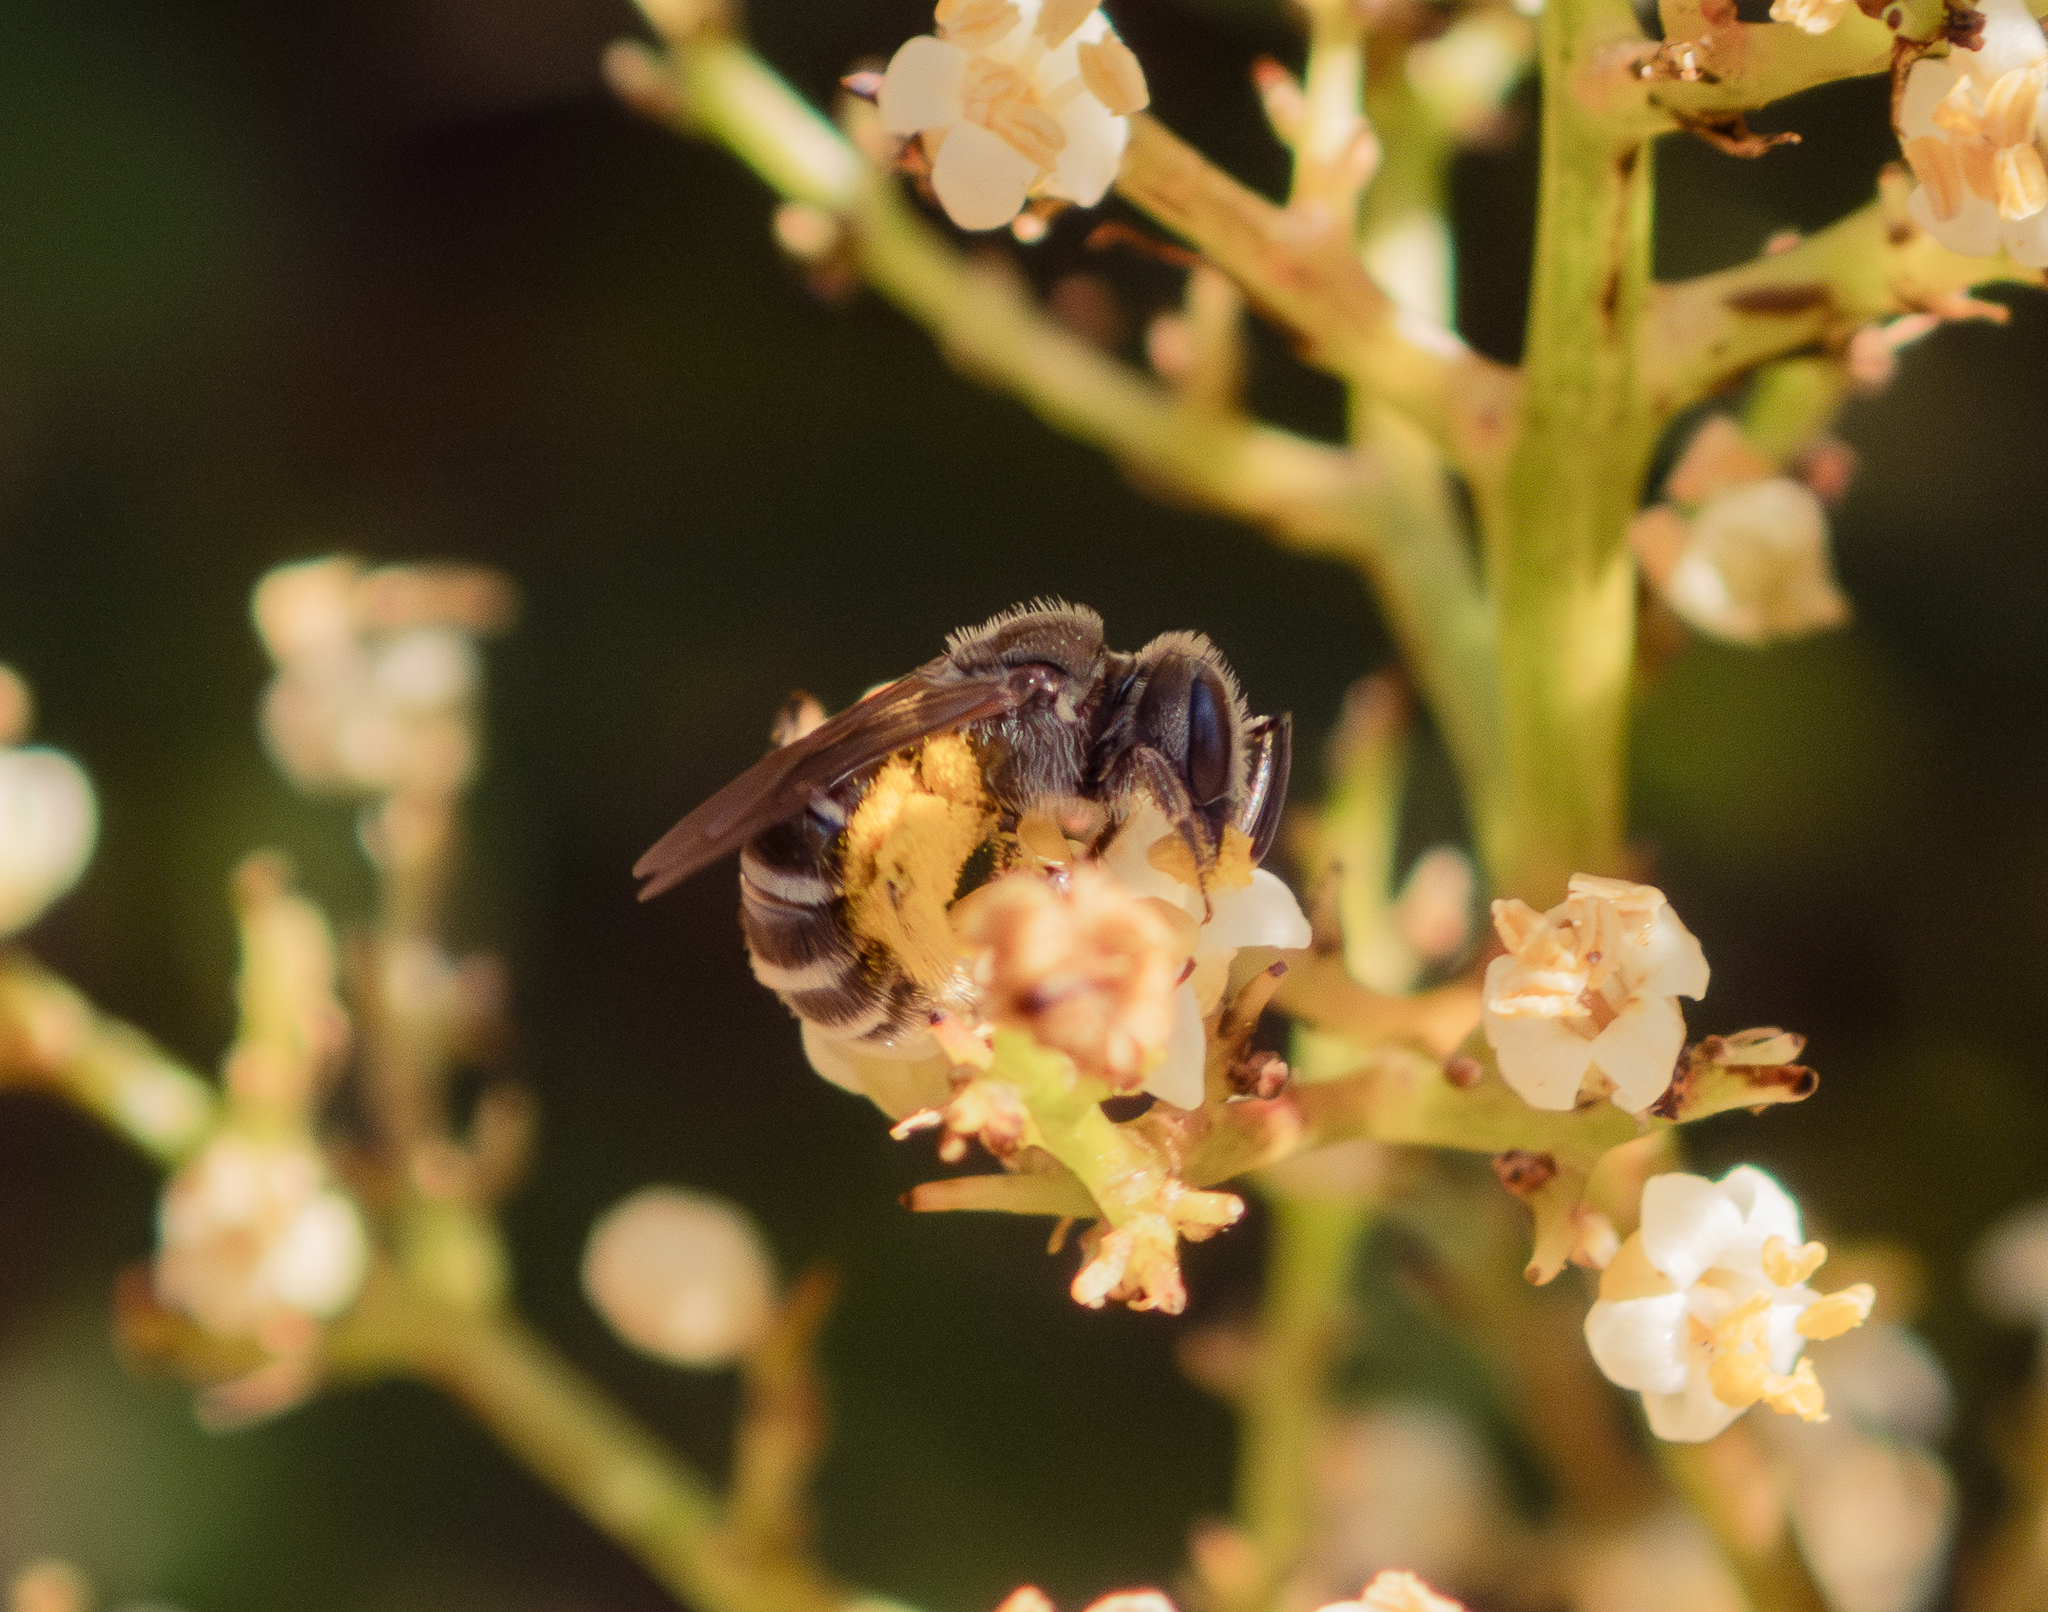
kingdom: Animalia
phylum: Arthropoda
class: Insecta
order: Hymenoptera
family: Halictidae
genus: Halictus
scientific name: Halictus tripartitus
